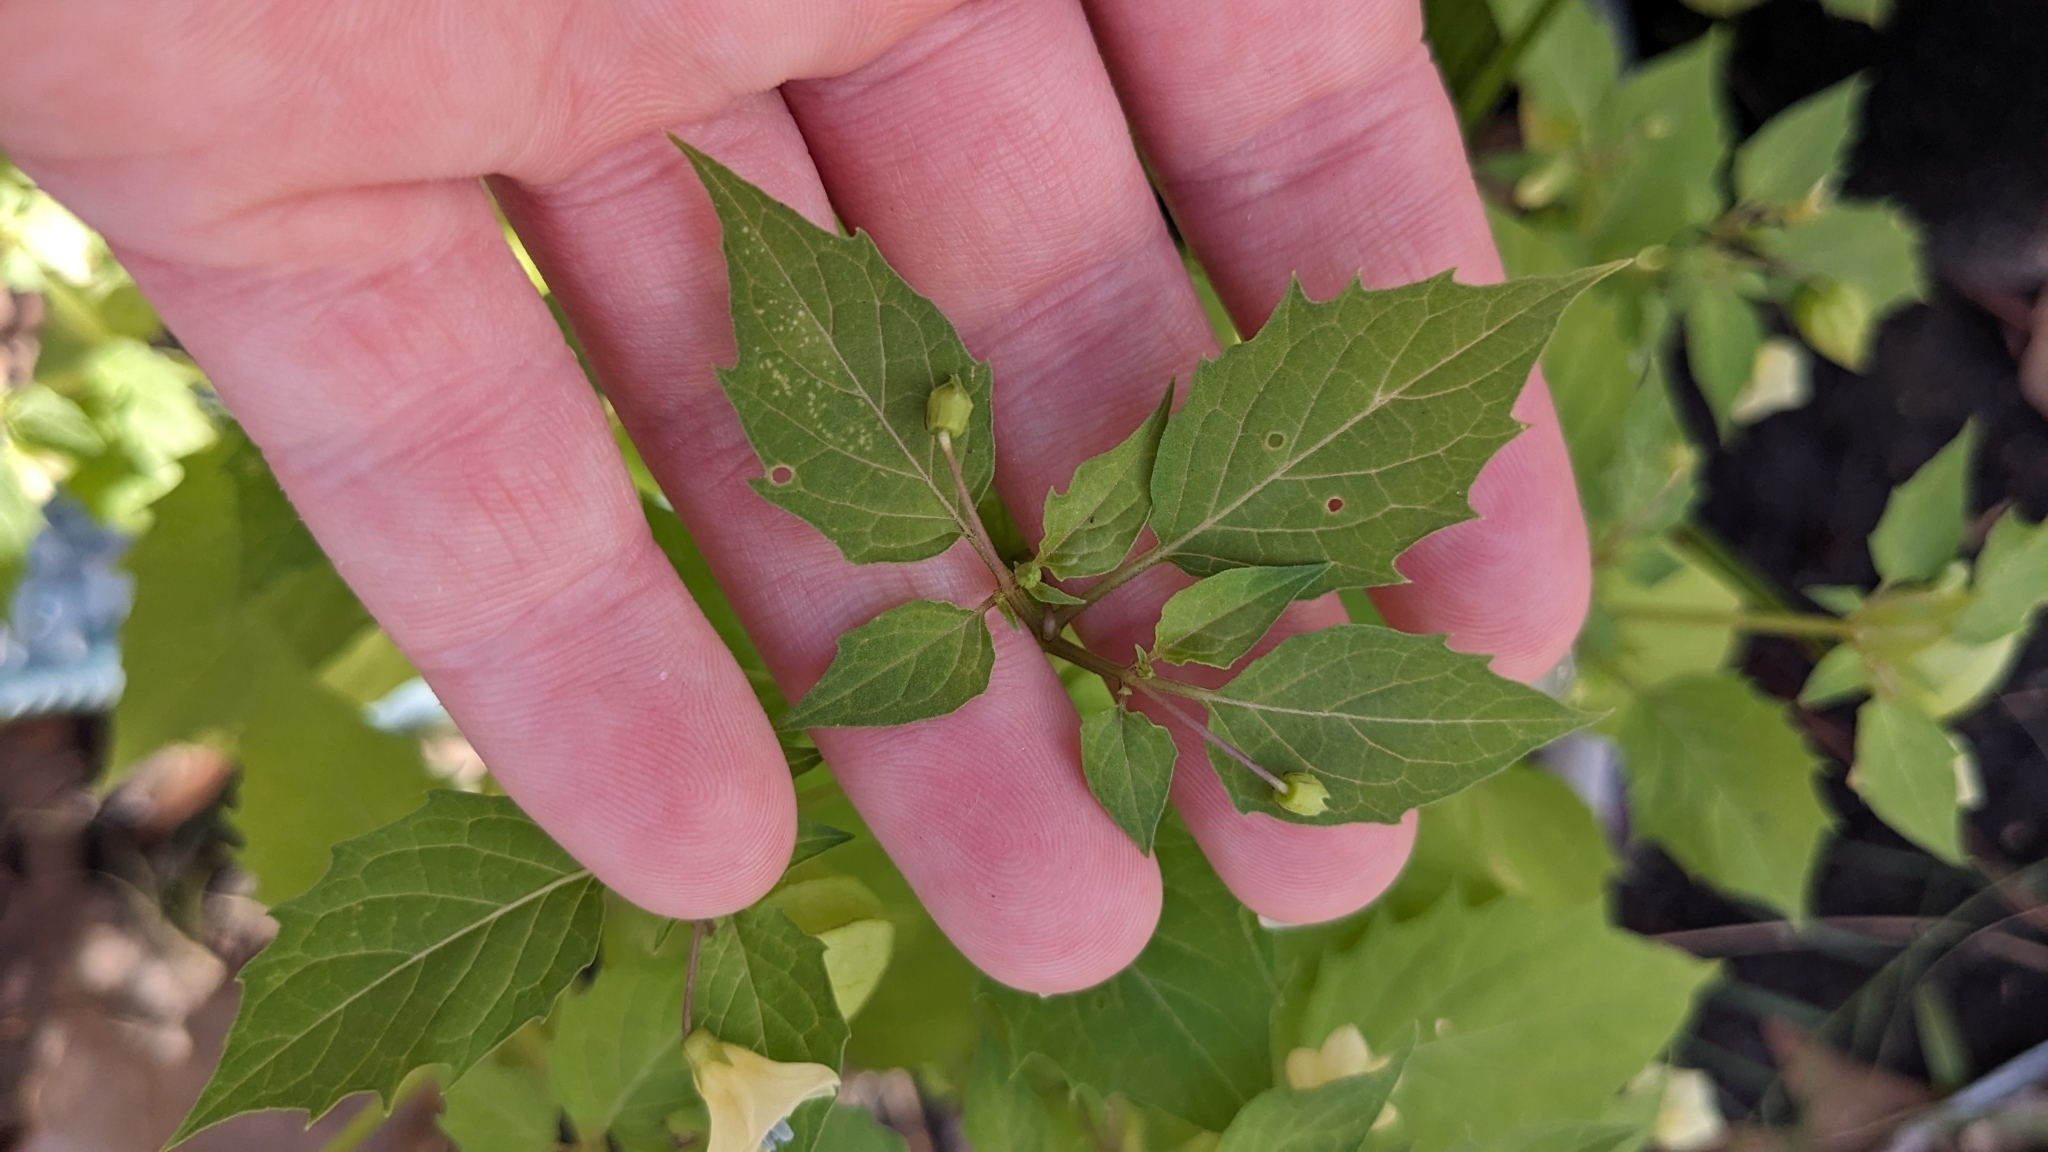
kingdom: Plantae
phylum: Tracheophyta
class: Magnoliopsida
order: Solanales
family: Solanaceae
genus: Physalis
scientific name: Physalis angulata
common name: Angular winter-cherry
